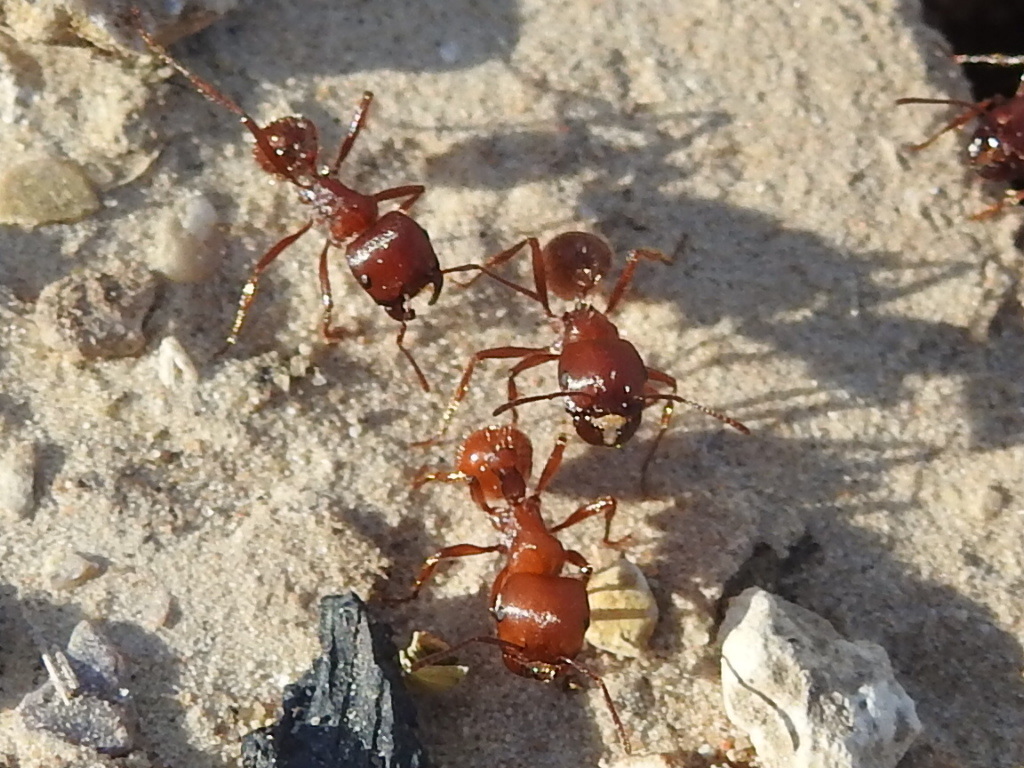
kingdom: Animalia
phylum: Arthropoda
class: Insecta
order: Hymenoptera
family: Formicidae
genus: Pogonomyrmex
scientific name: Pogonomyrmex barbatus
